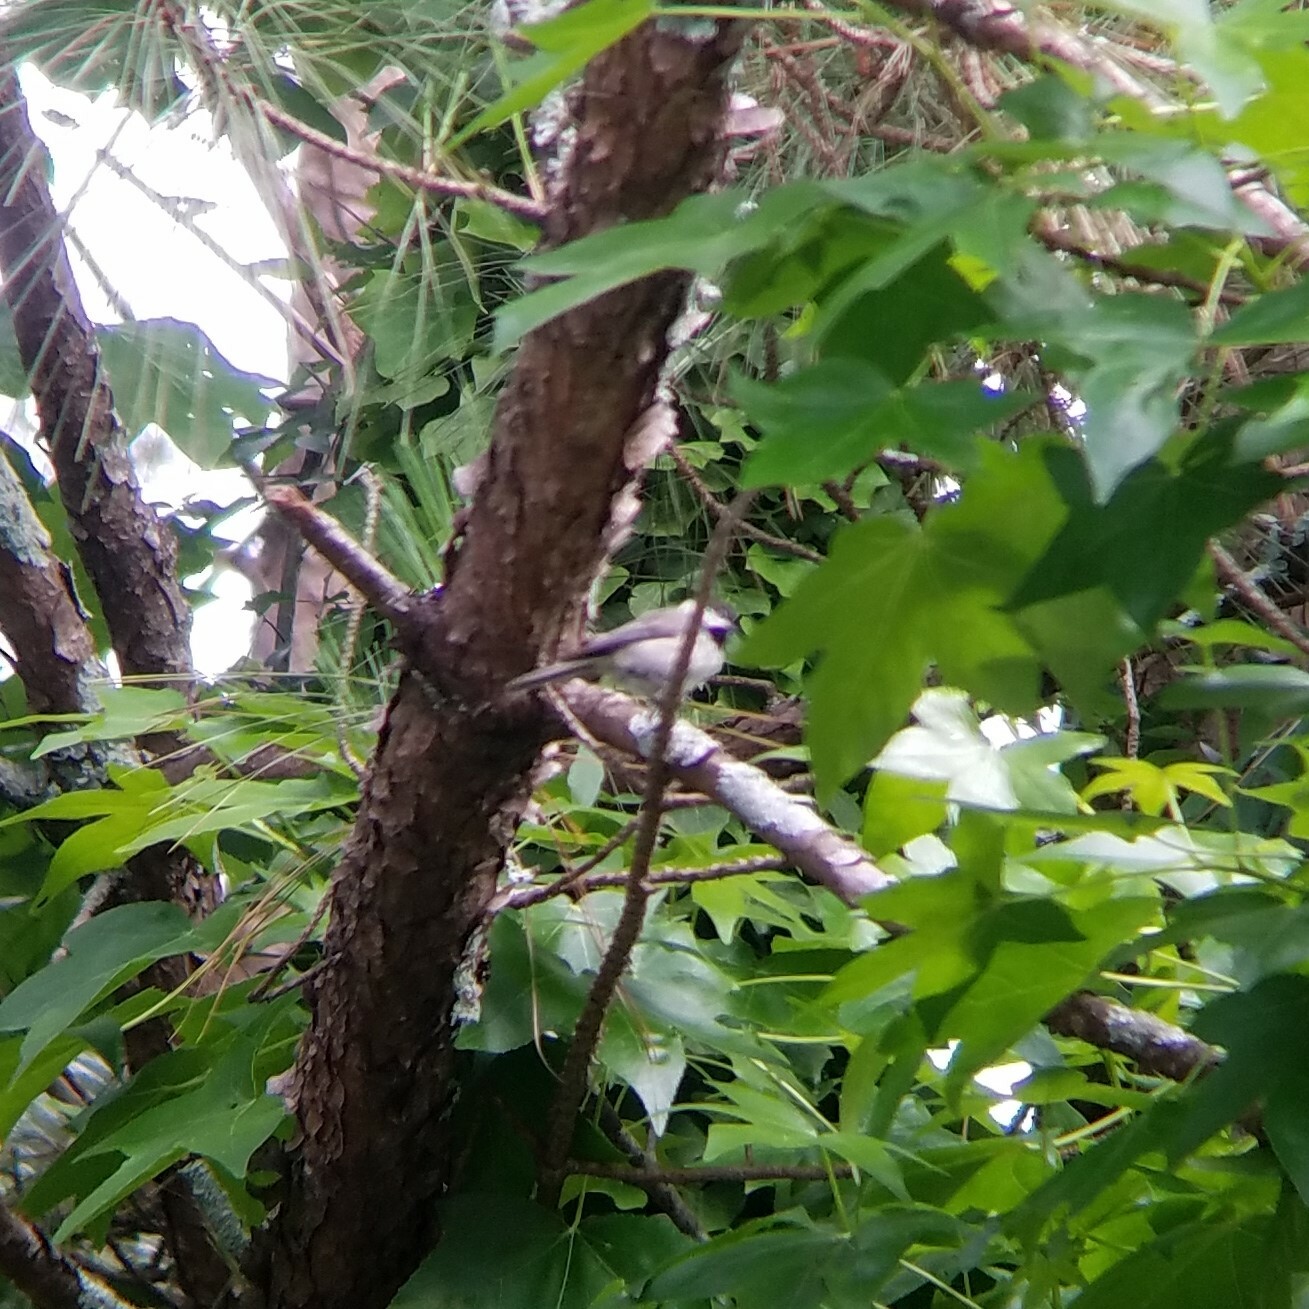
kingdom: Animalia
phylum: Chordata
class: Aves
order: Passeriformes
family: Paridae
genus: Poecile
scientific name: Poecile carolinensis
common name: Carolina chickadee
